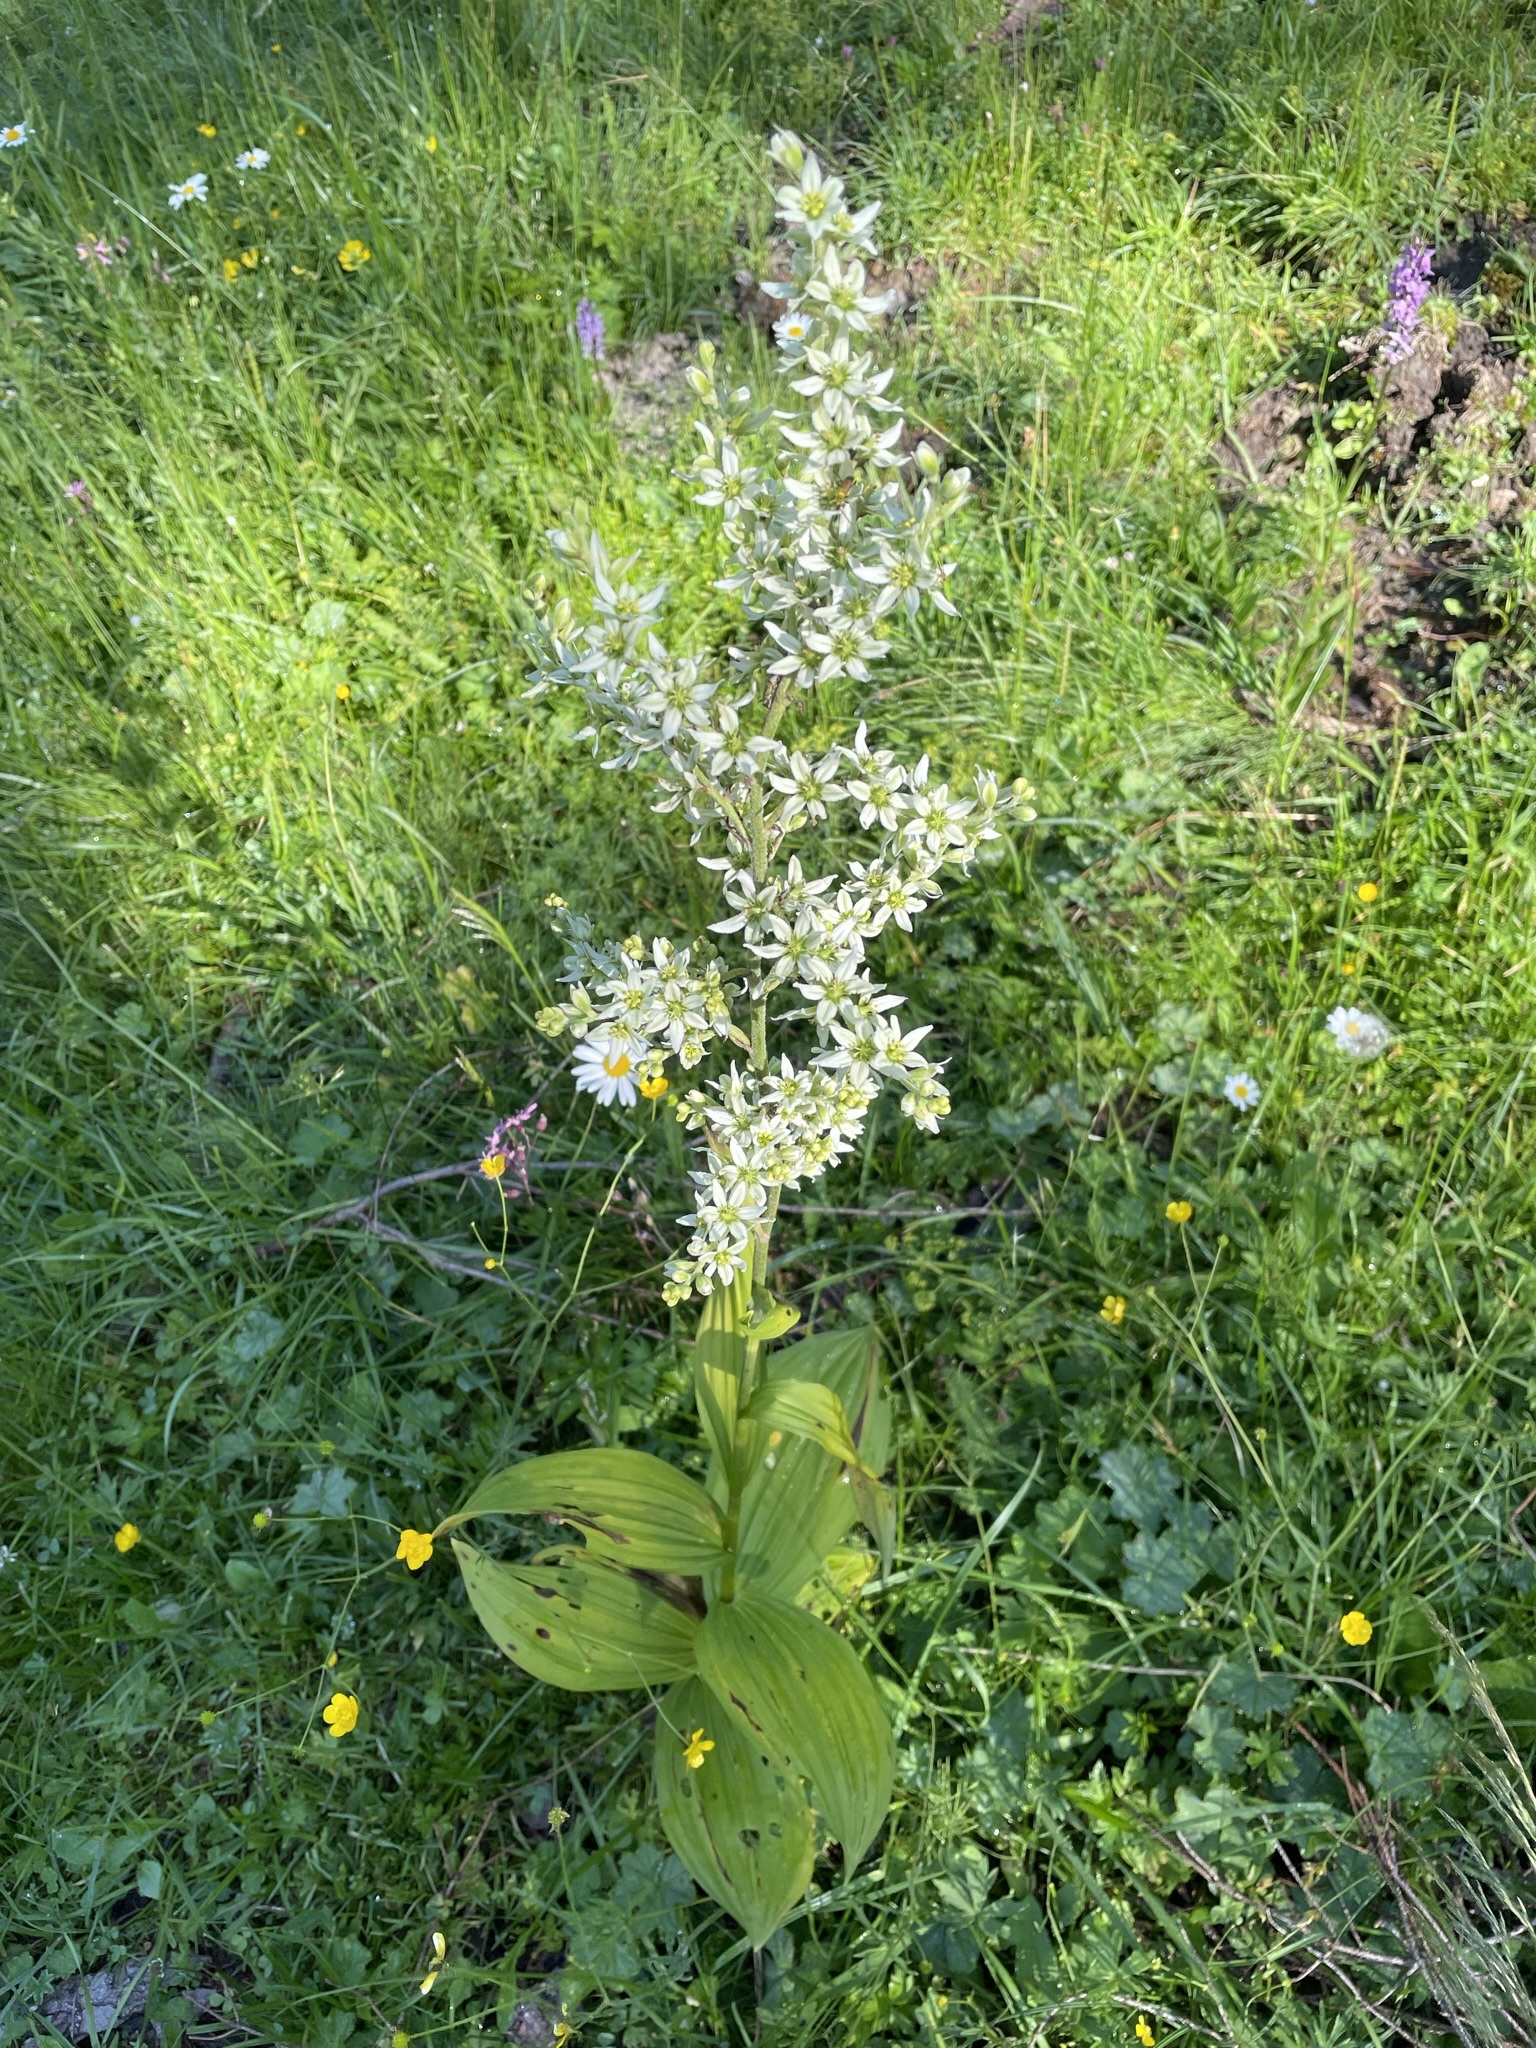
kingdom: Plantae
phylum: Tracheophyta
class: Liliopsida
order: Liliales
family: Melanthiaceae
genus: Veratrum
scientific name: Veratrum album
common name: White veratrum
